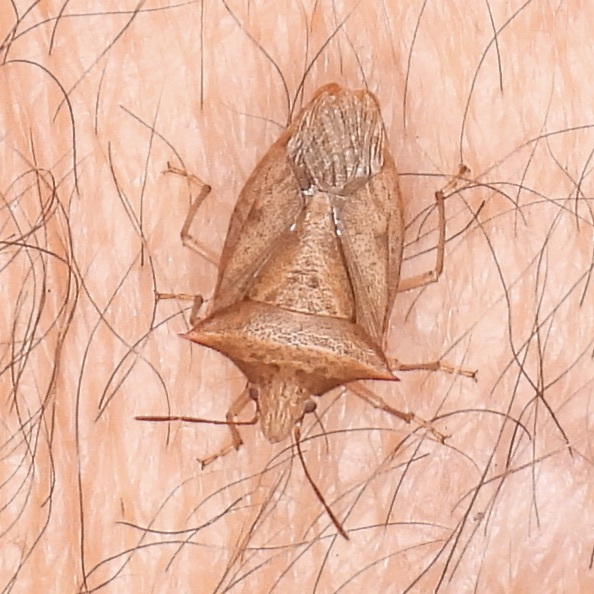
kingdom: Animalia
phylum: Arthropoda
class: Insecta
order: Hemiptera
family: Pentatomidae
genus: Euschistus
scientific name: Euschistus ictericus
